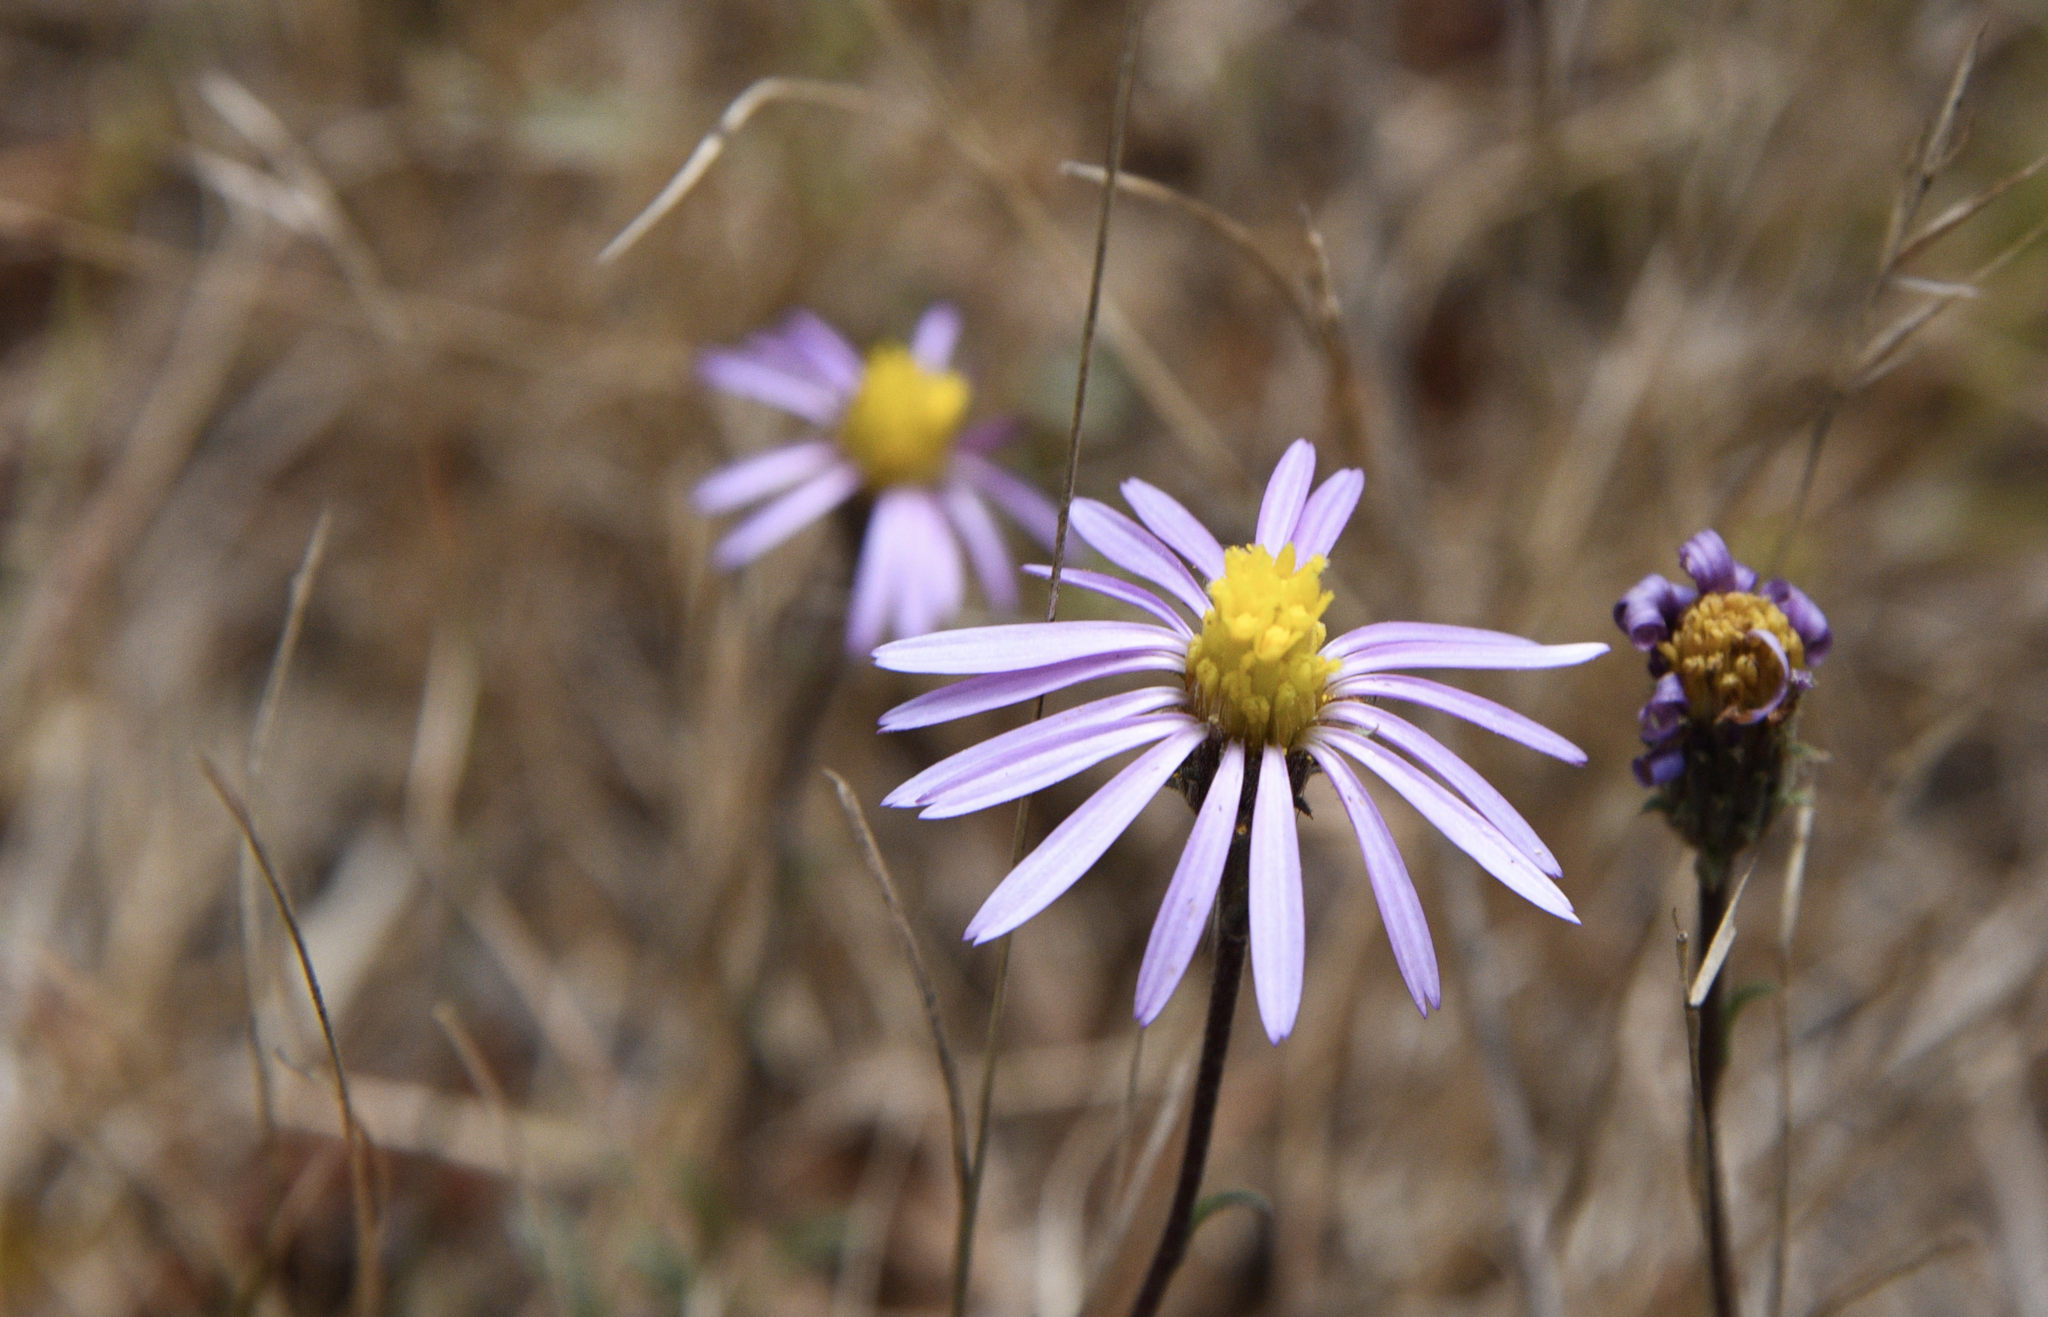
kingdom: Plantae
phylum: Tracheophyta
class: Magnoliopsida
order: Asterales
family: Asteraceae
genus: Corethrogyne
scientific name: Corethrogyne filaginifolia
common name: Sand-aster
